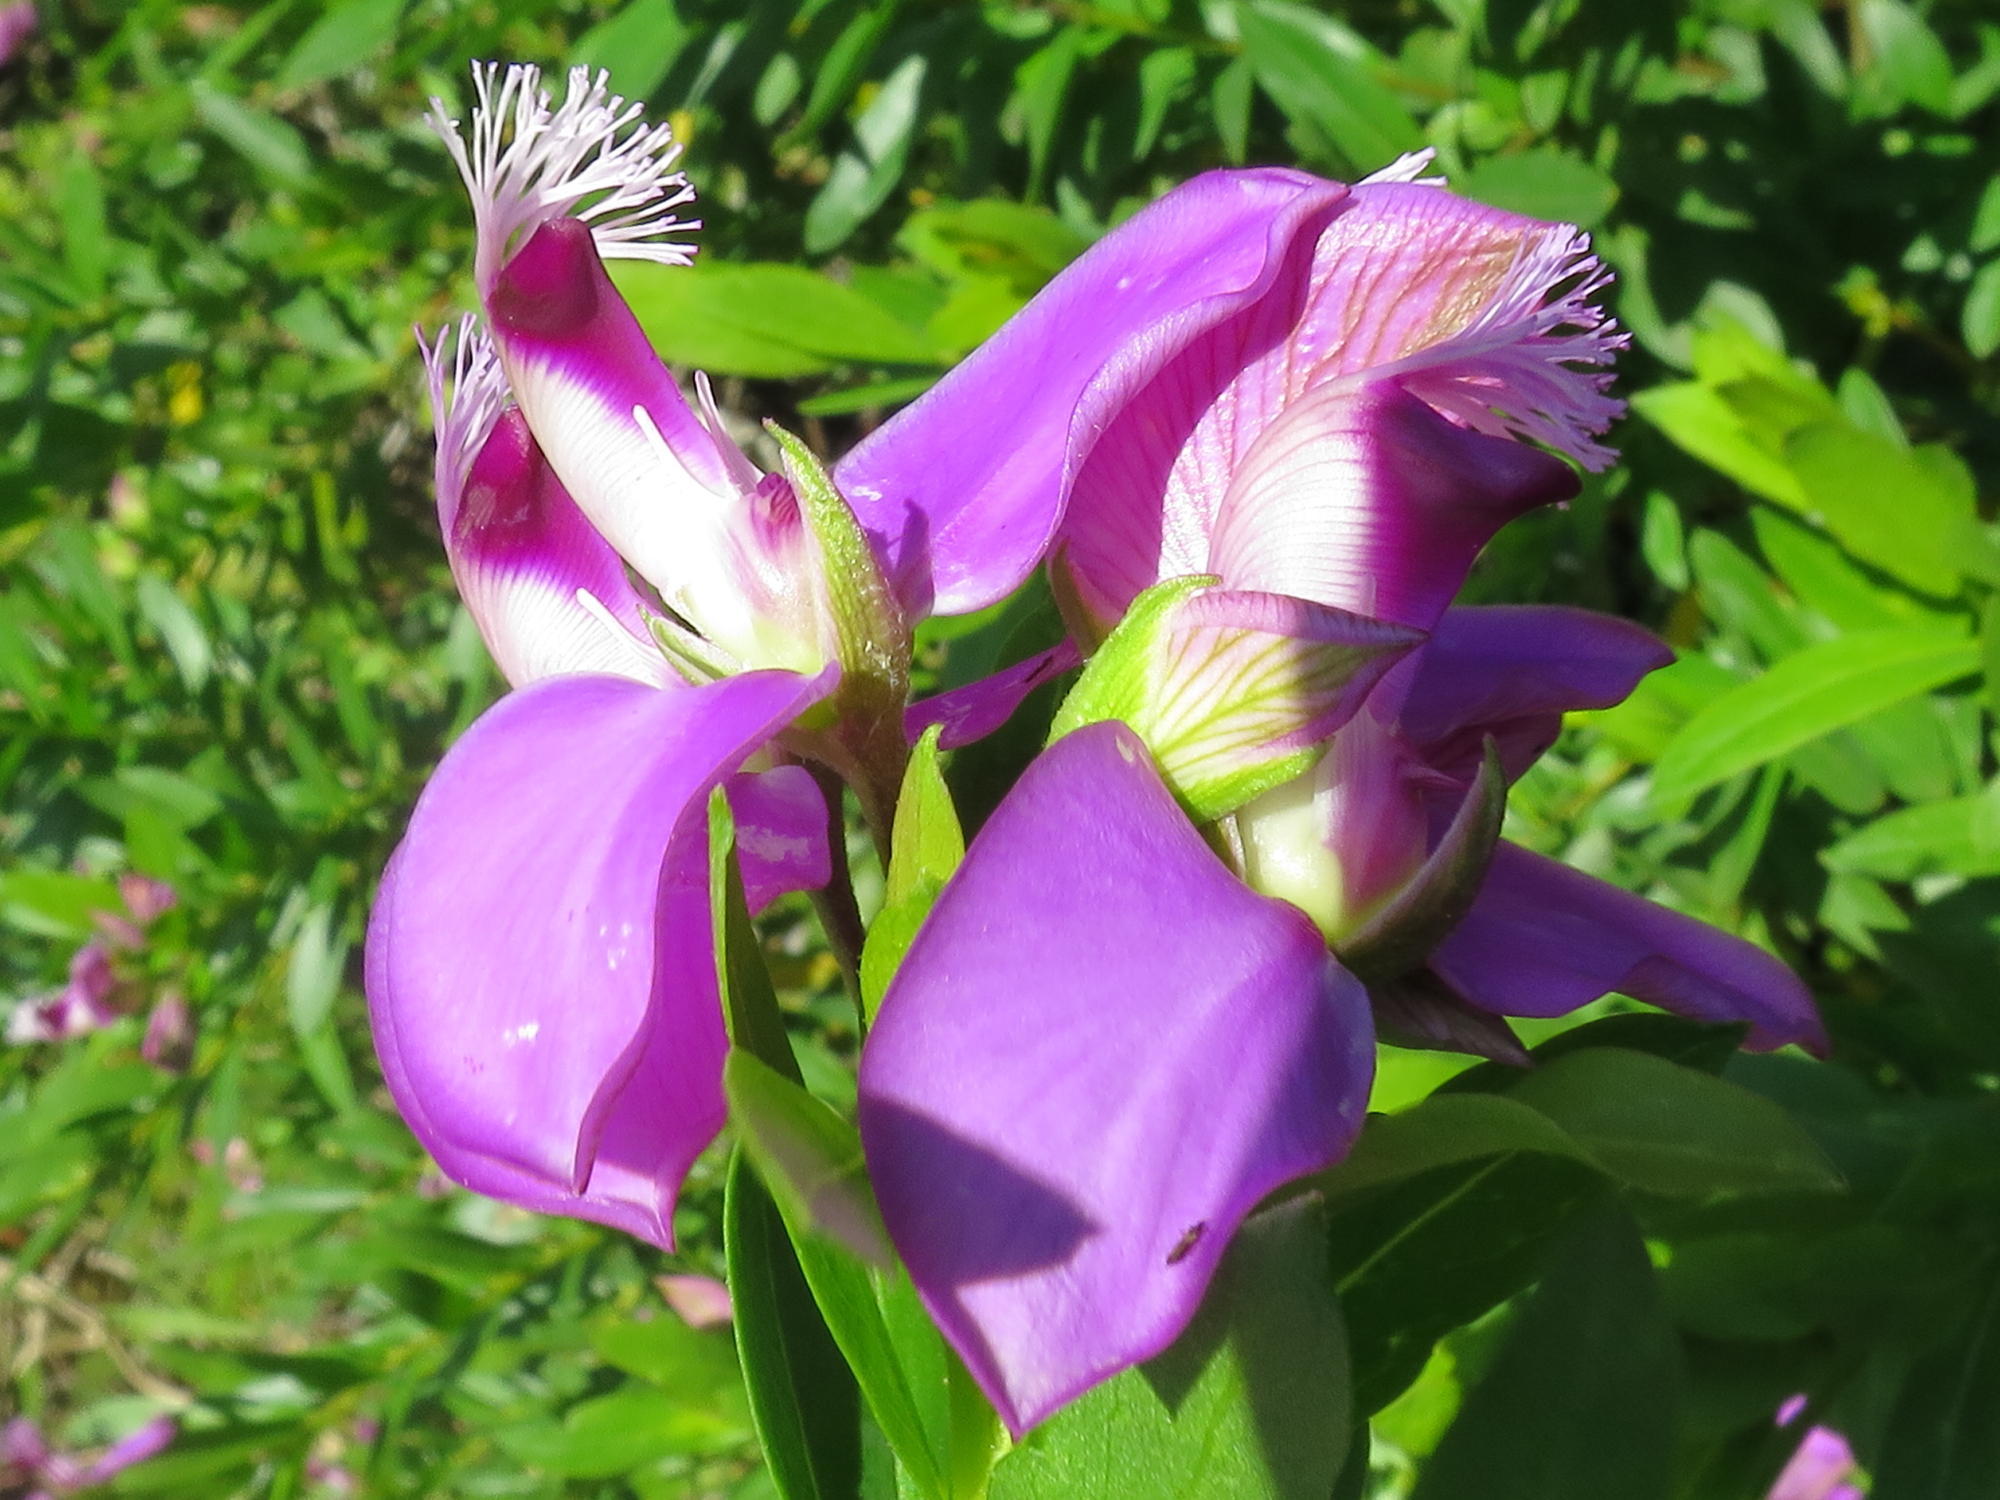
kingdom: Plantae
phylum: Tracheophyta
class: Magnoliopsida
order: Fabales
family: Polygalaceae
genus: Polygala
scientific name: Polygala myrtifolia
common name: Myrtle-leaf milkwort
